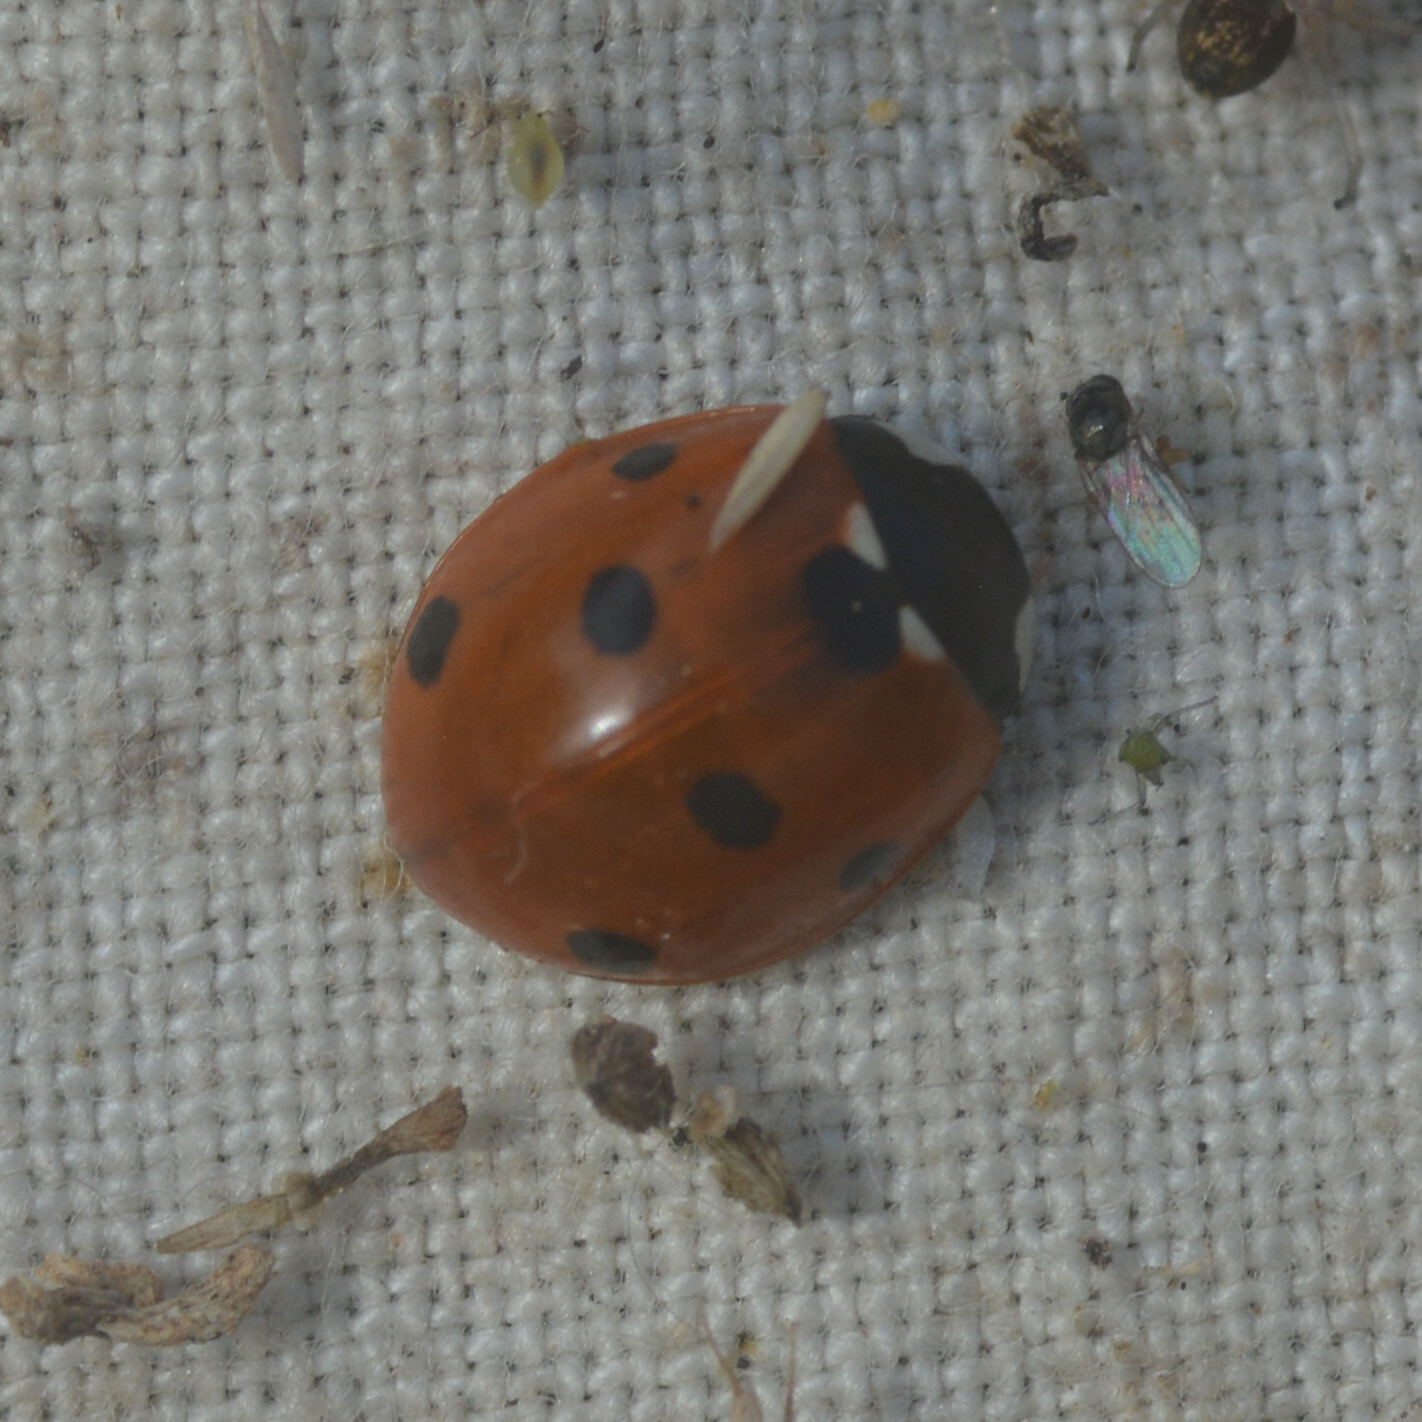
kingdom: Animalia
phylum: Arthropoda
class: Insecta
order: Coleoptera
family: Coccinellidae
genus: Coccinella
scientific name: Coccinella septempunctata
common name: Sevenspotted lady beetle
